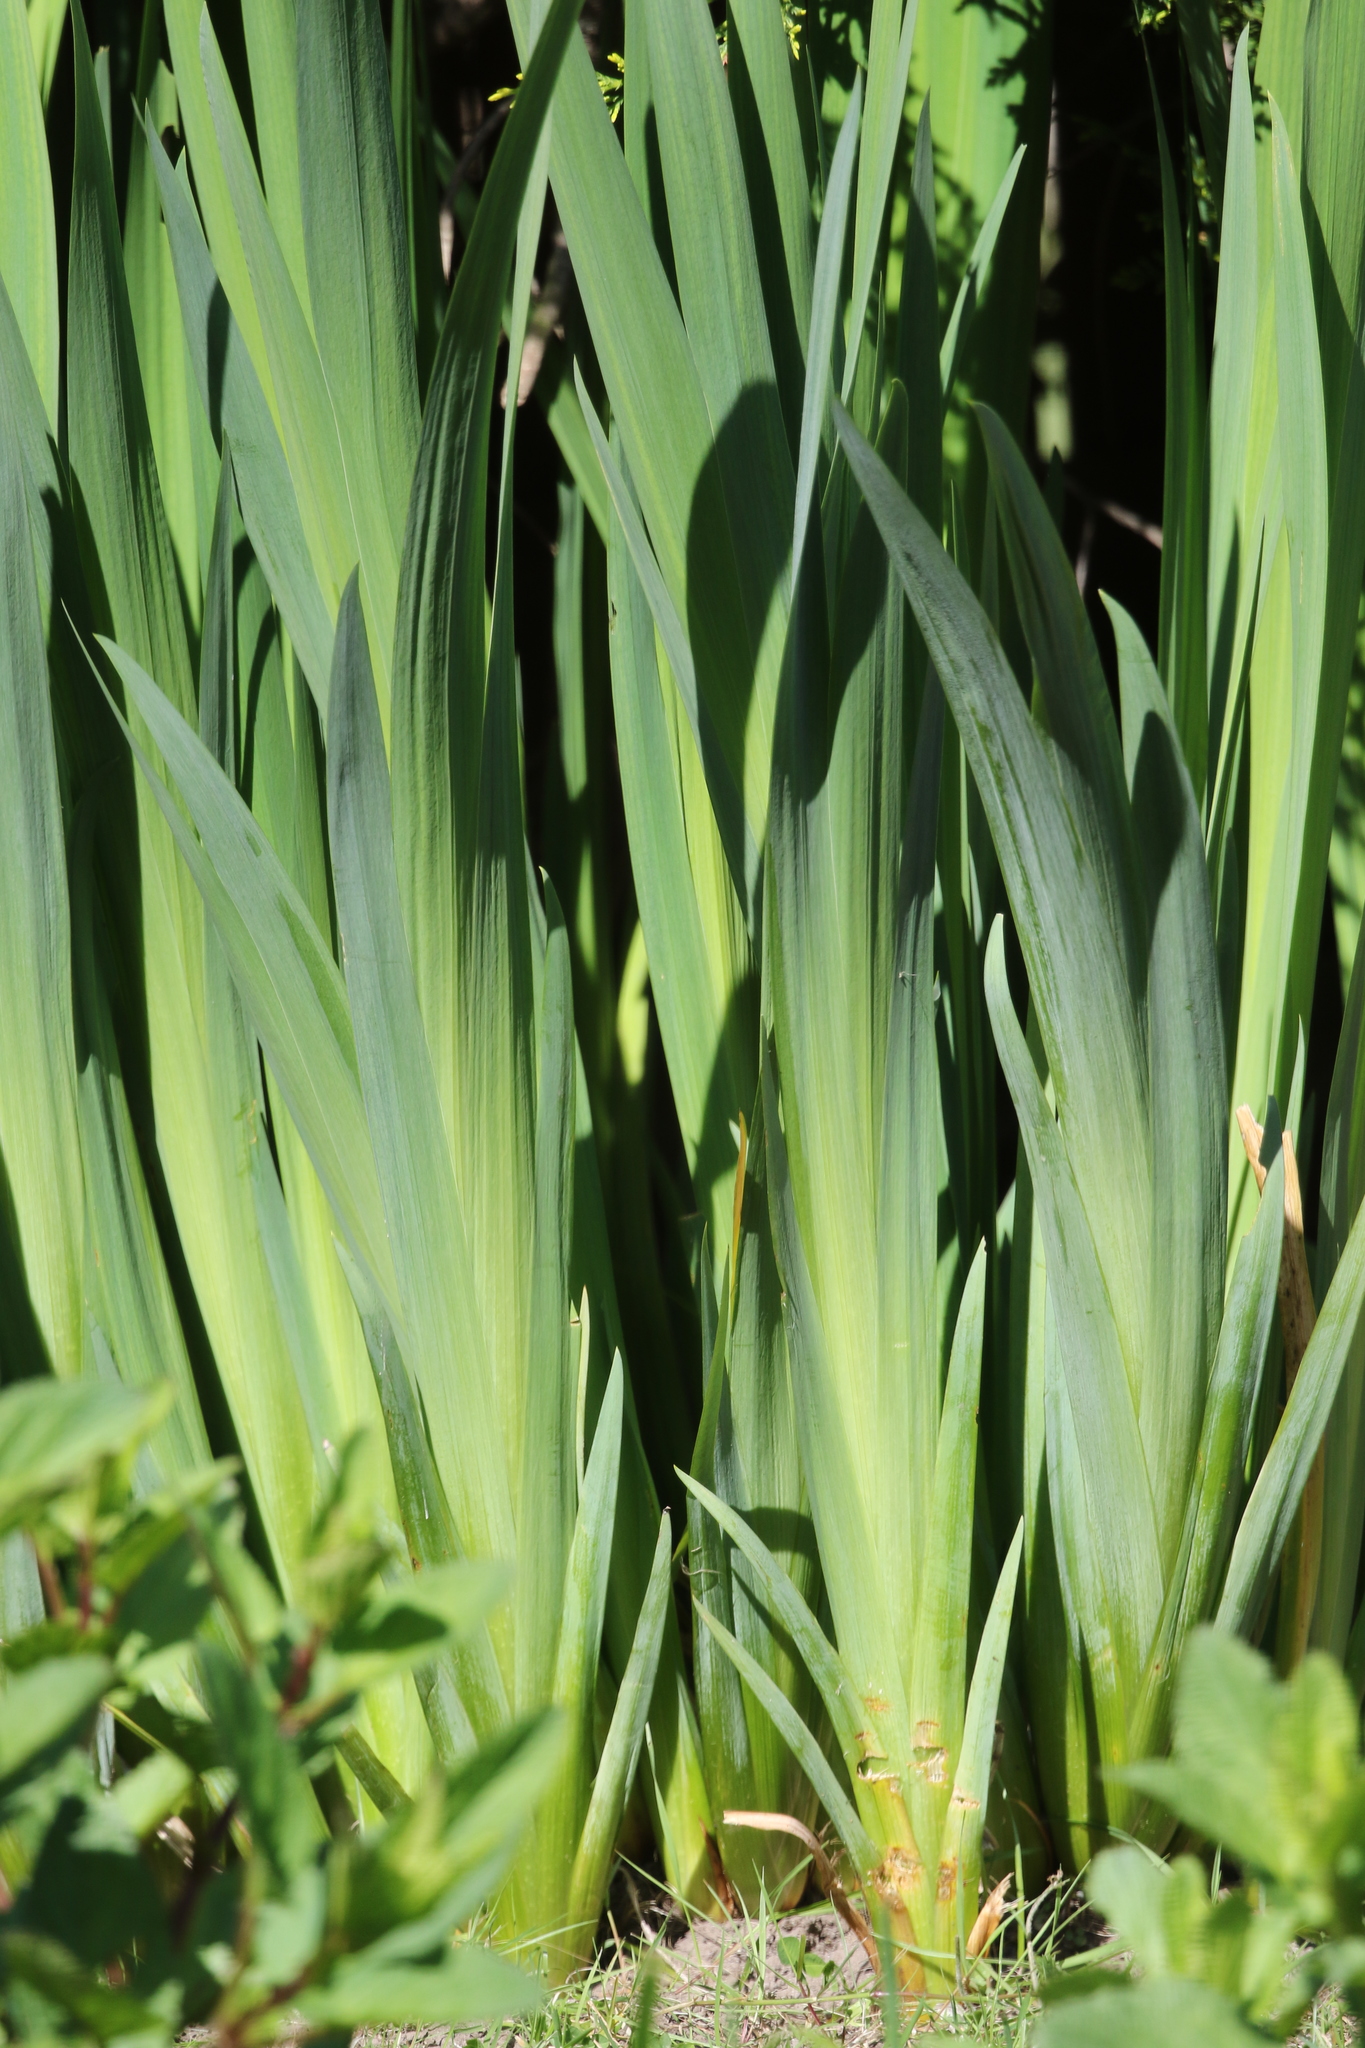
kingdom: Plantae
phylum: Tracheophyta
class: Liliopsida
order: Asparagales
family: Iridaceae
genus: Iris
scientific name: Iris pseudacorus
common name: Yellow flag
